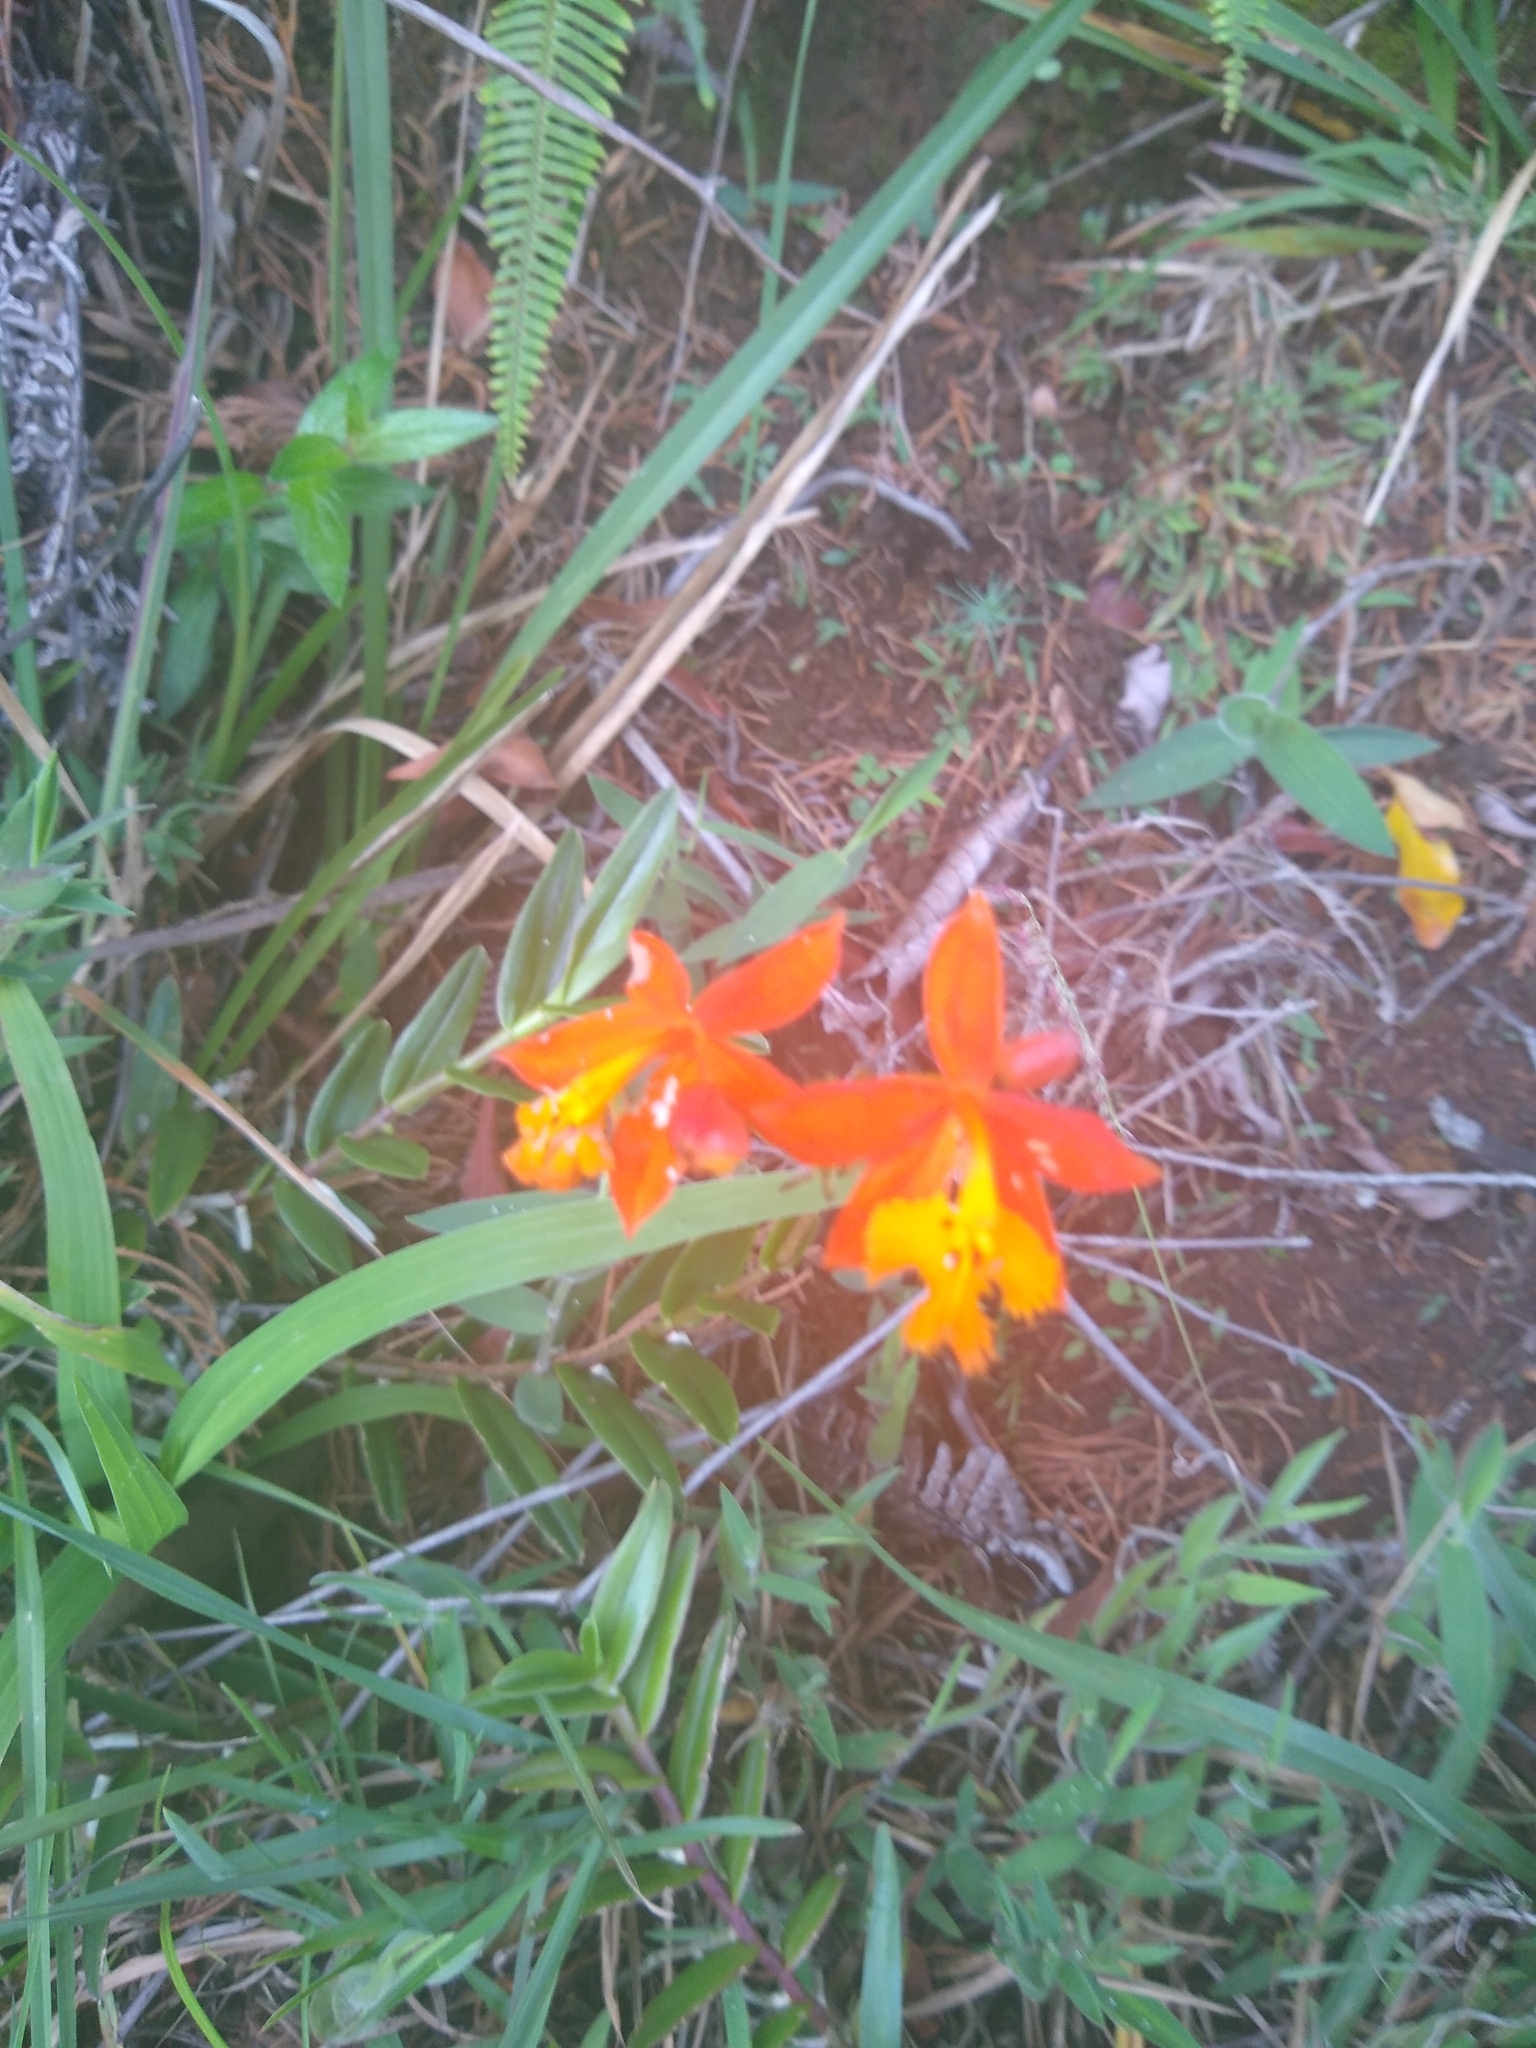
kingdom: Plantae
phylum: Tracheophyta
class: Liliopsida
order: Asparagales
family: Orchidaceae
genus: Epidendrum
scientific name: Epidendrum radicans
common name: Fire star orchid
